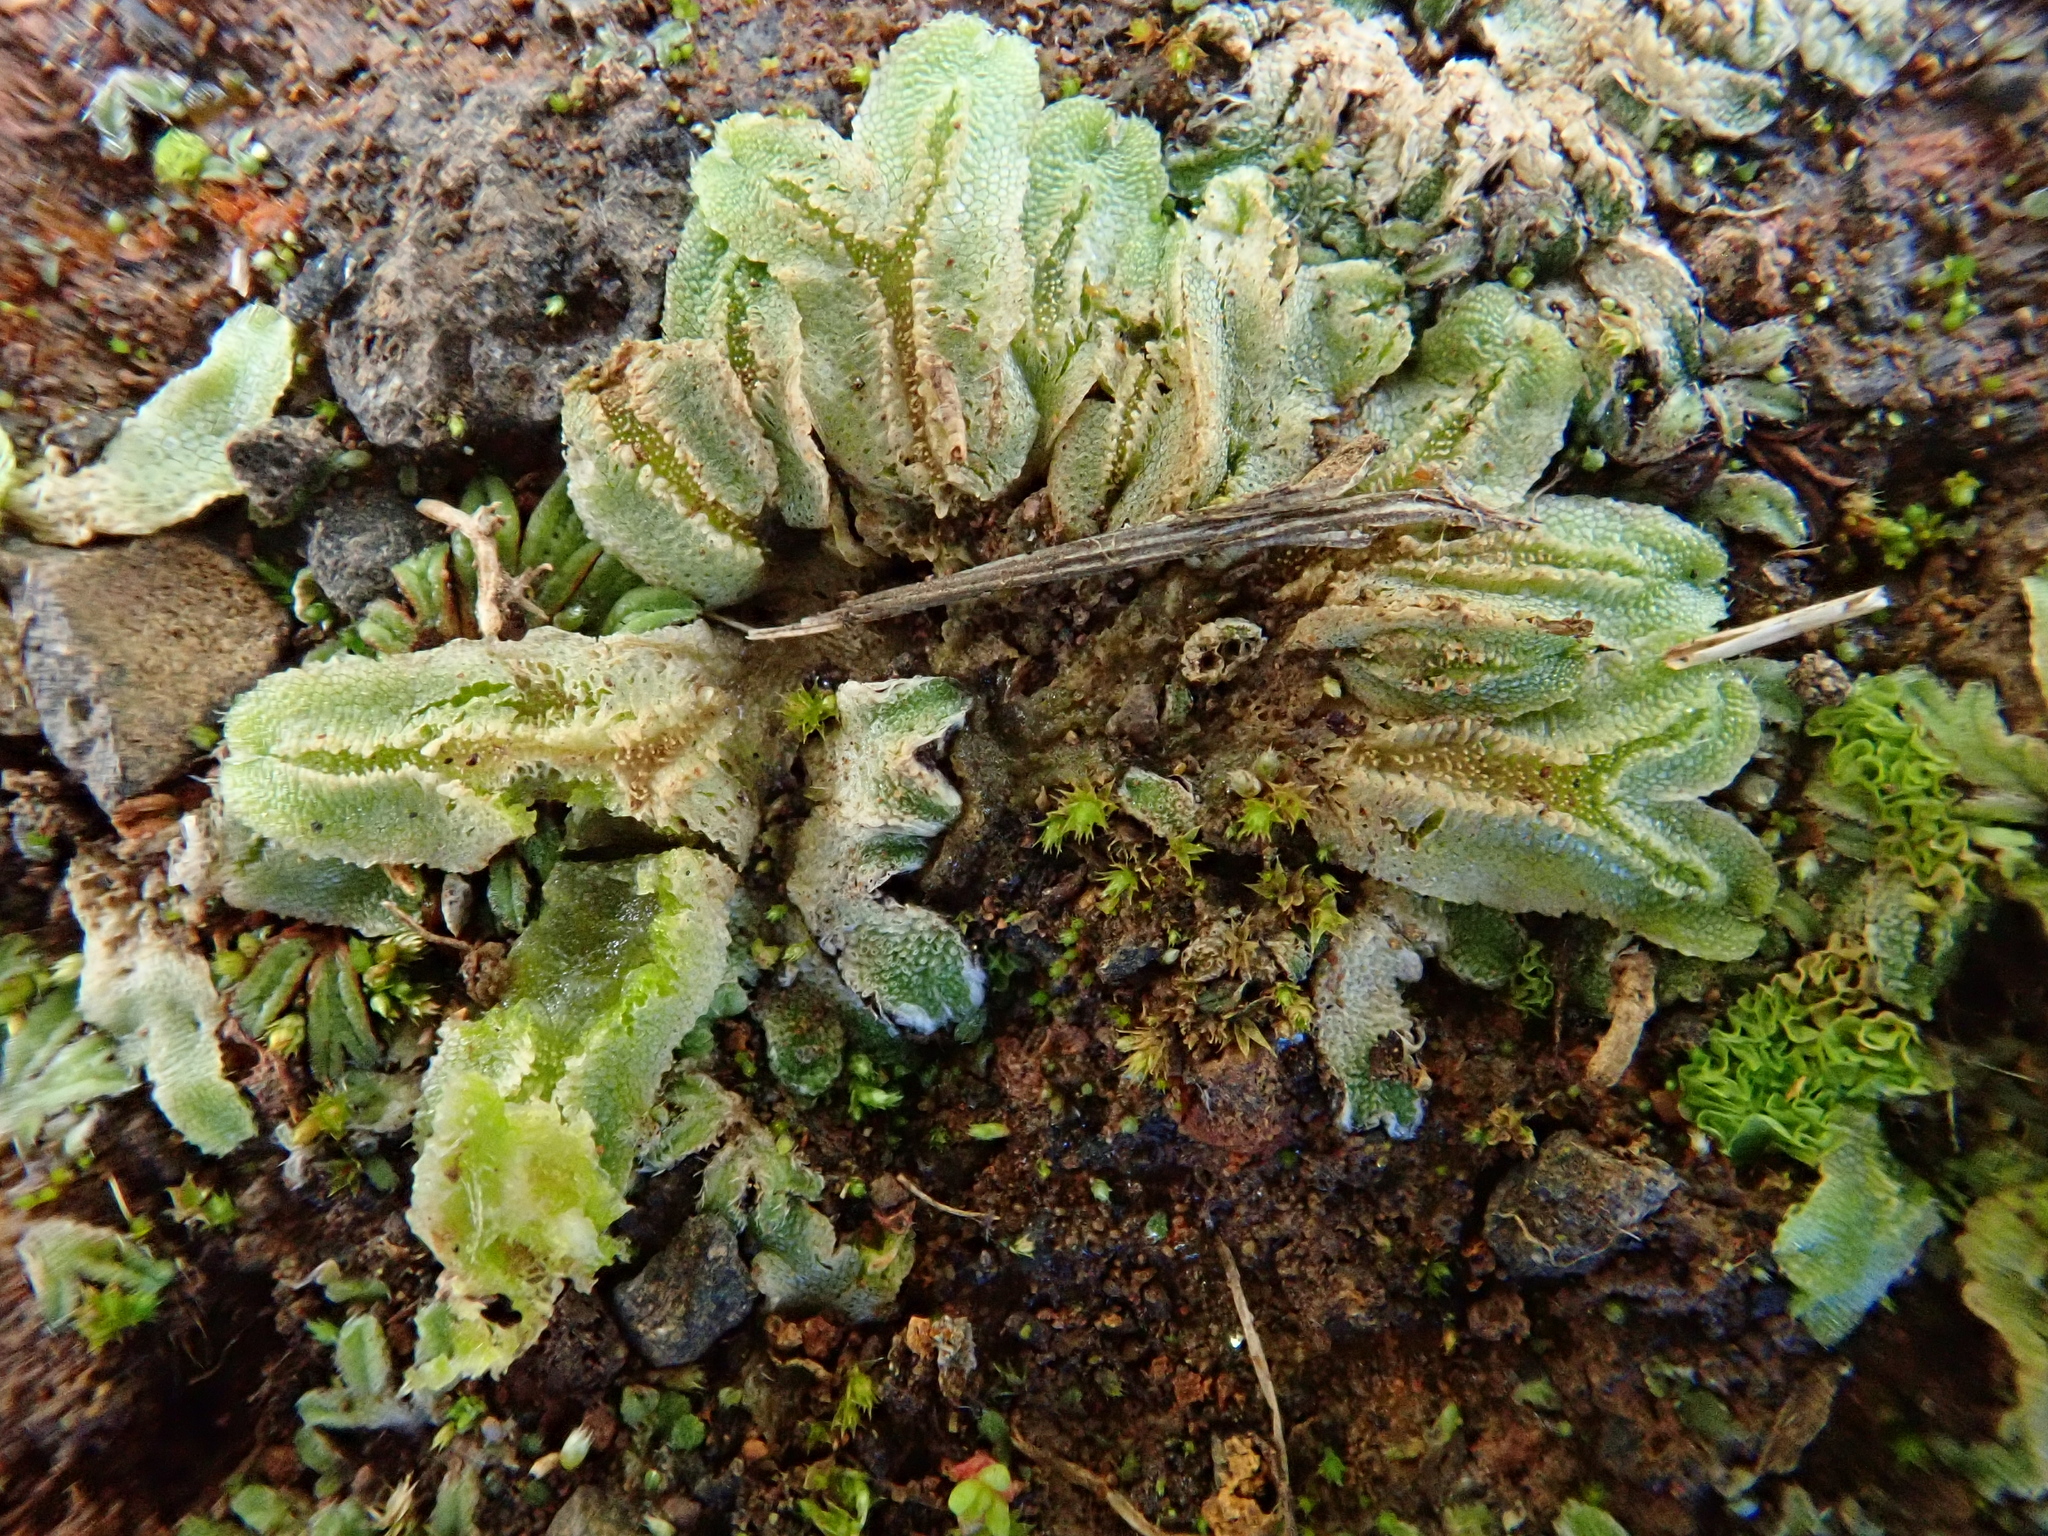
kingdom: Plantae
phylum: Marchantiophyta
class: Marchantiopsida
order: Marchantiales
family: Corsiniaceae
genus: Corsinia
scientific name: Corsinia coriandrina
